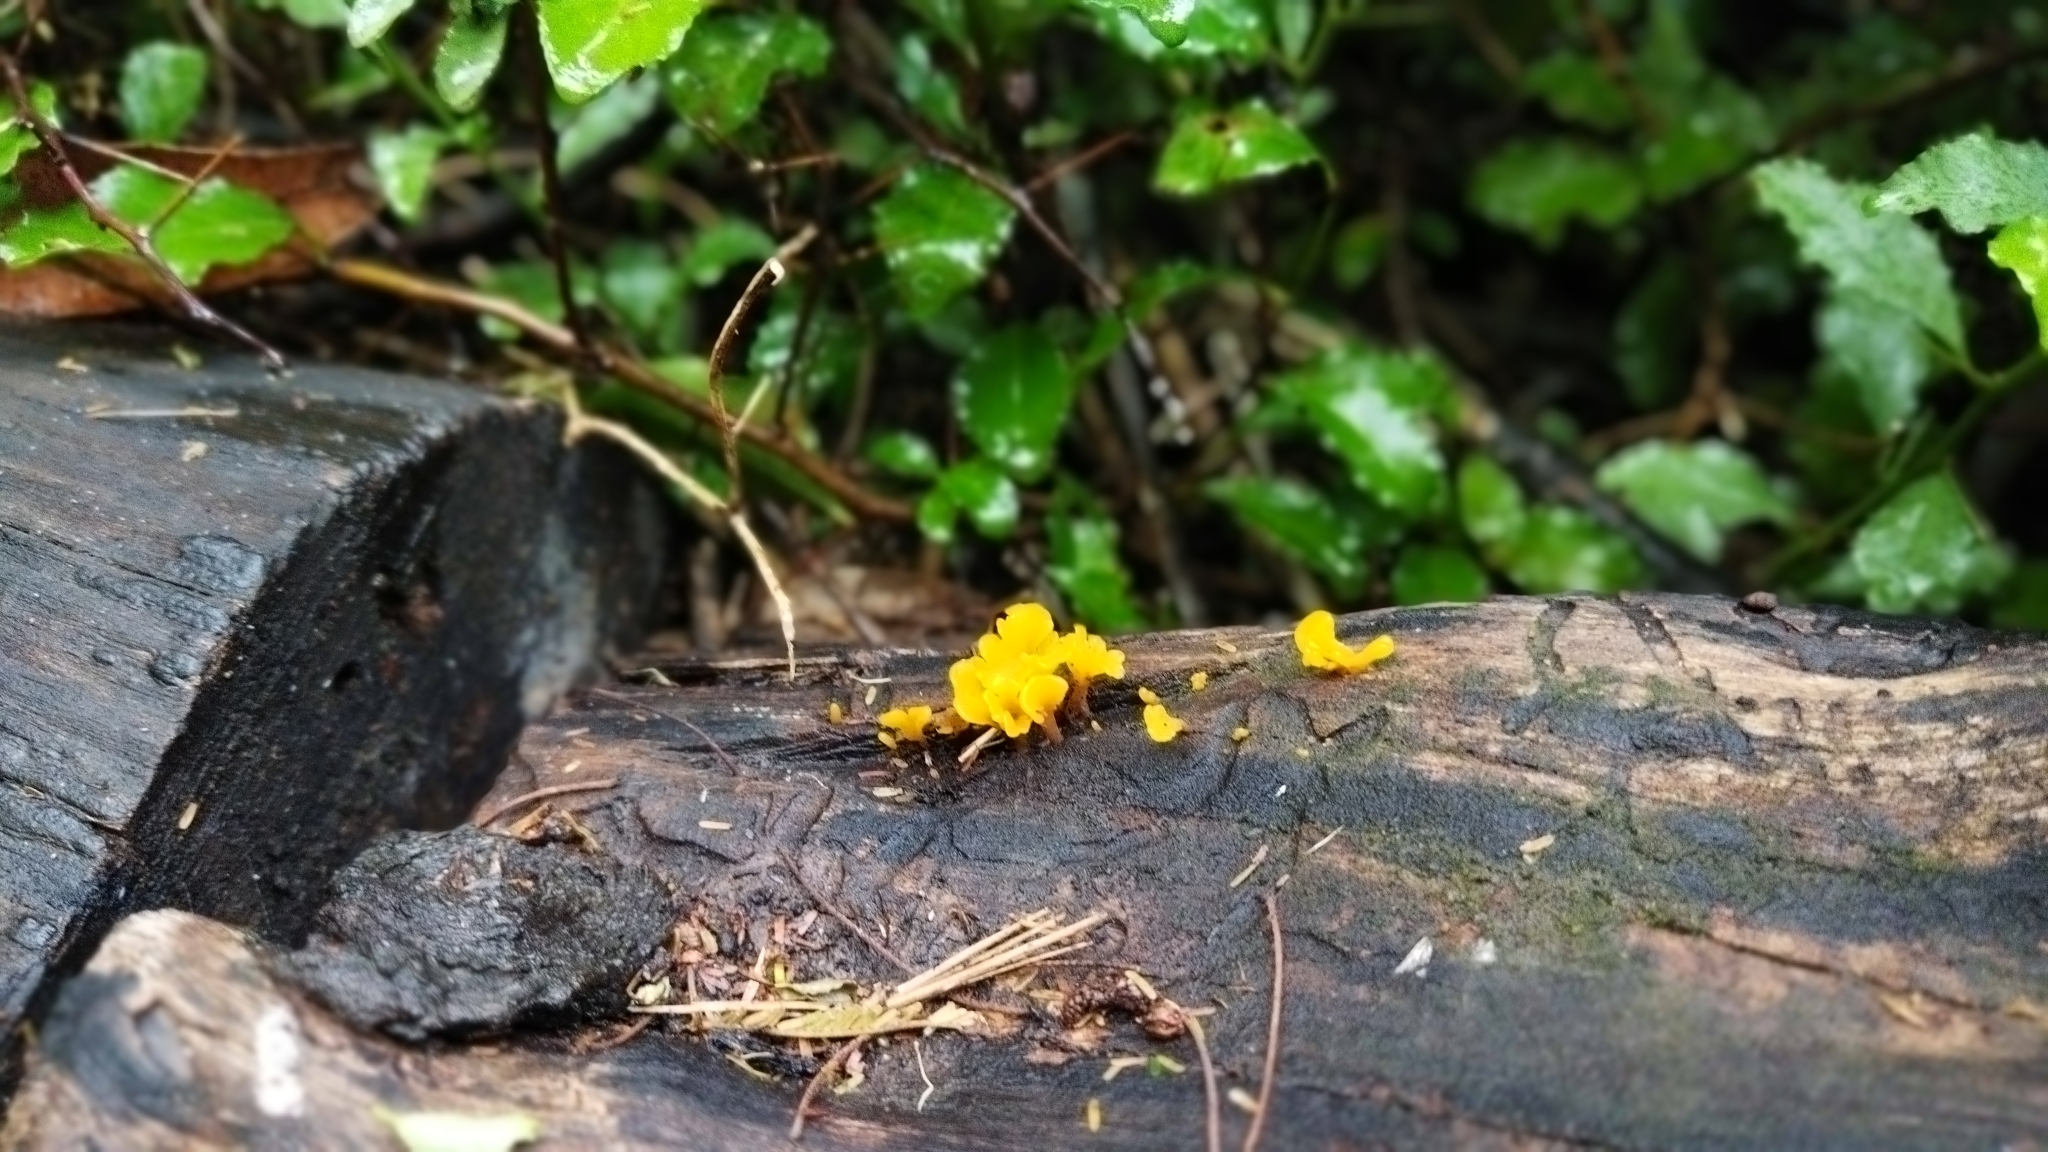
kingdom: Fungi
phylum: Basidiomycota
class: Dacrymycetes
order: Dacrymycetales
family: Dacrymycetaceae
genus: Dacrymyces
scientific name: Dacrymyces spathularius
